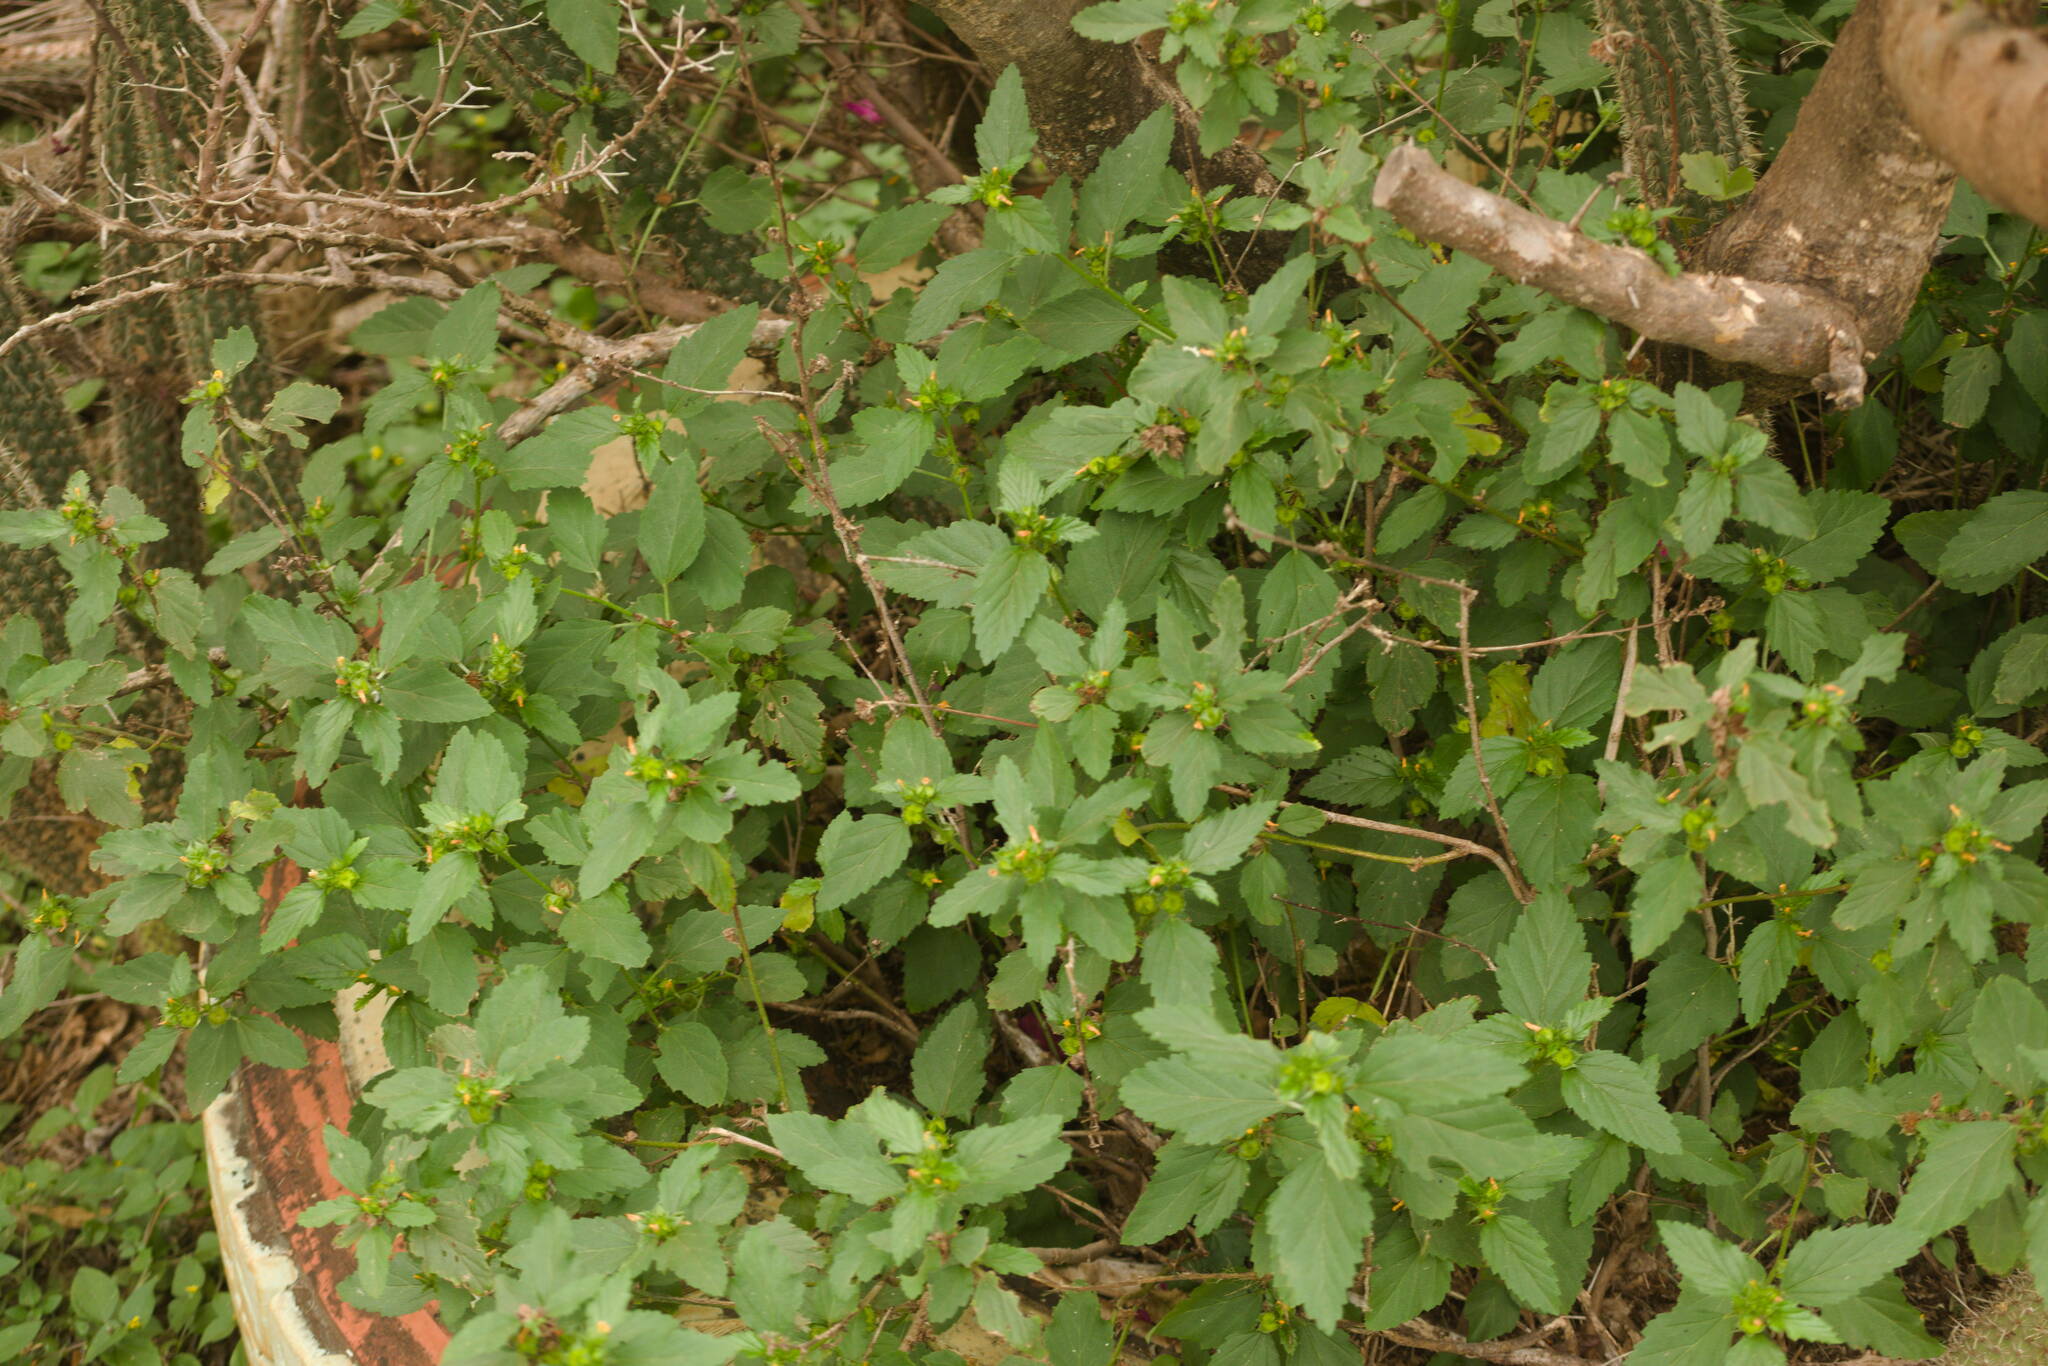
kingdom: Plantae
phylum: Tracheophyta
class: Magnoliopsida
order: Malvales
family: Malvaceae
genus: Malvastrum
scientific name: Malvastrum coromandelianum
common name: Threelobe false mallow
